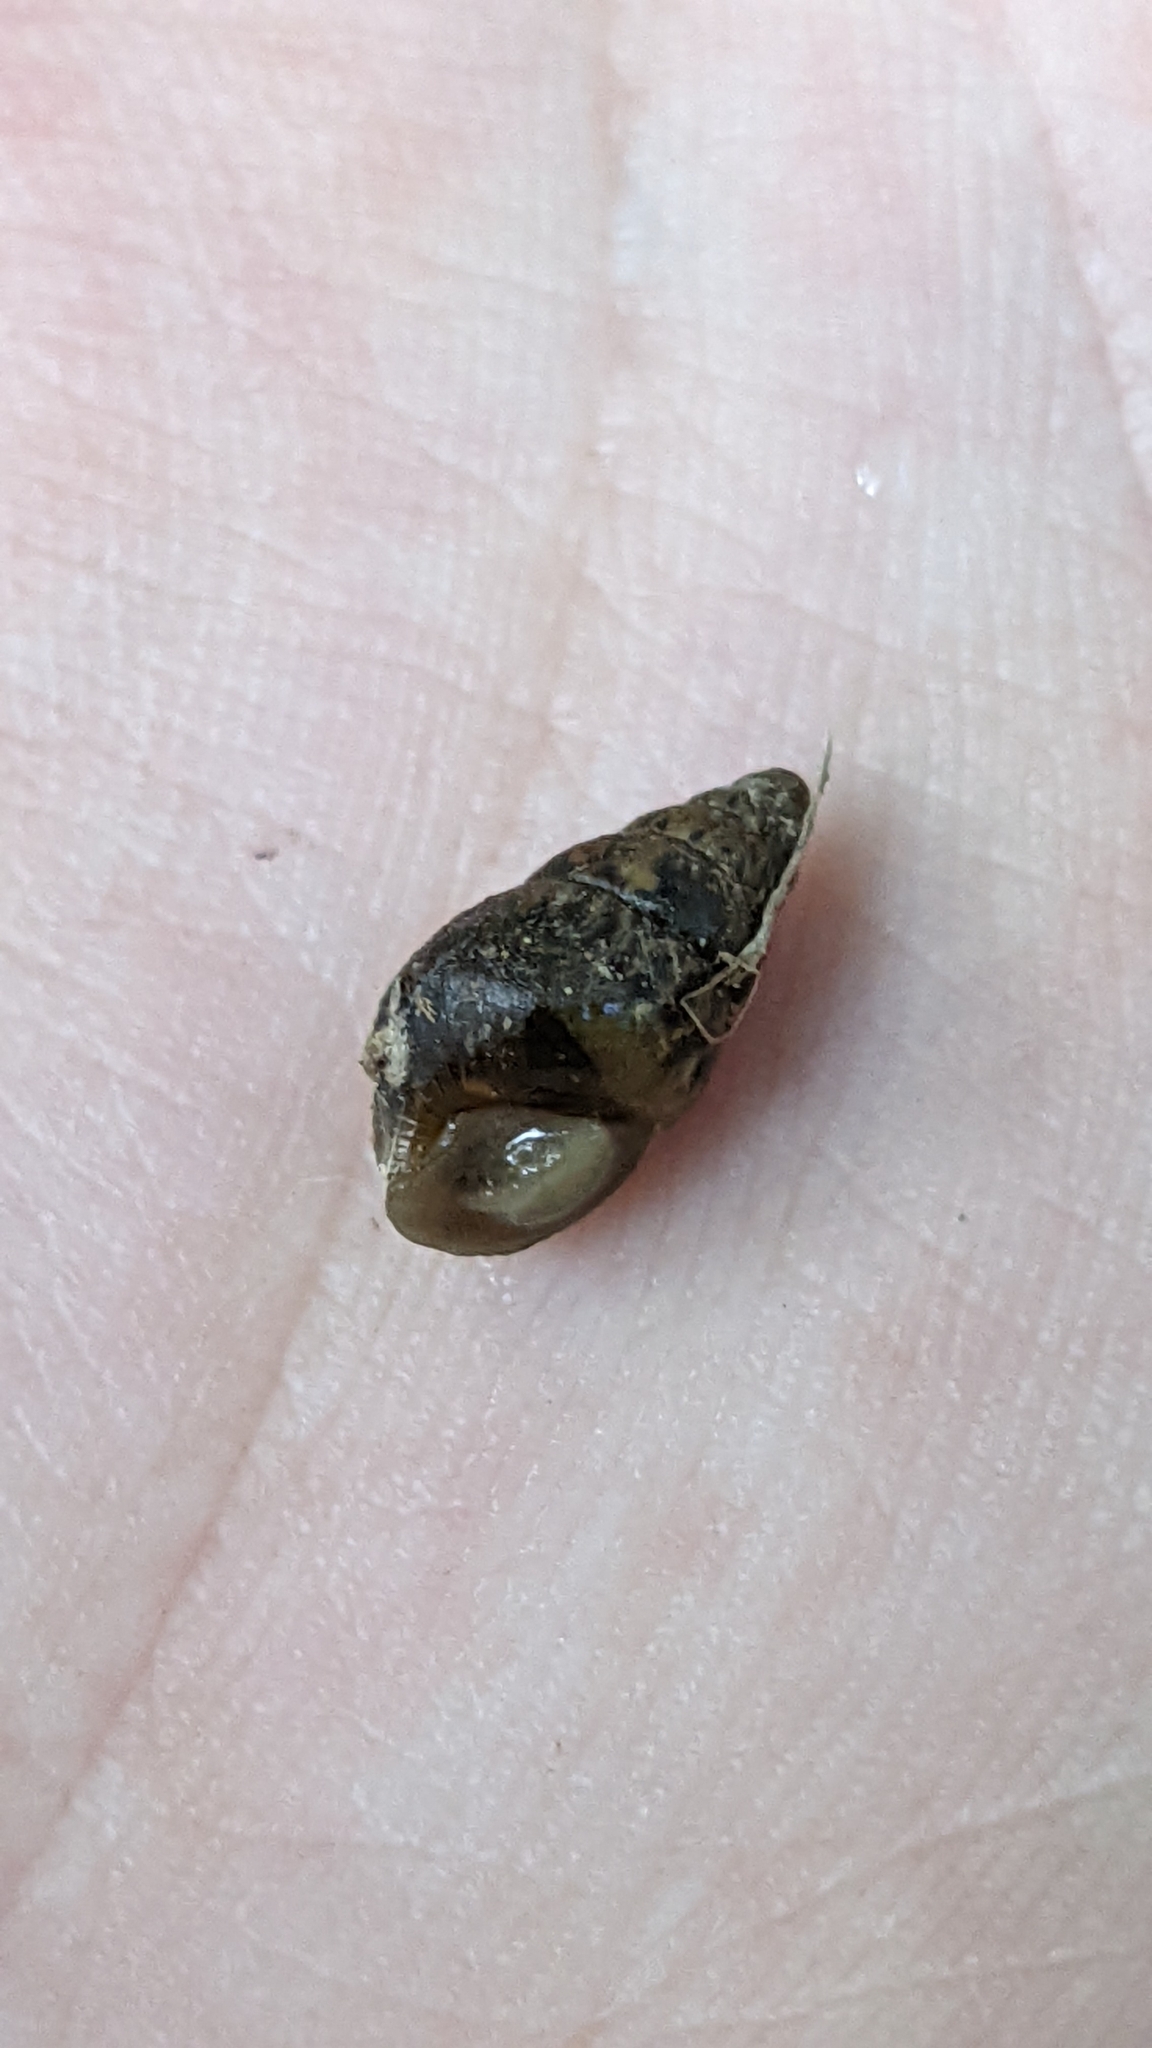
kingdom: Animalia
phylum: Mollusca
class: Gastropoda
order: Stylommatophora
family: Enidae
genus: Ena
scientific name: Ena montana
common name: Mountain bulin
